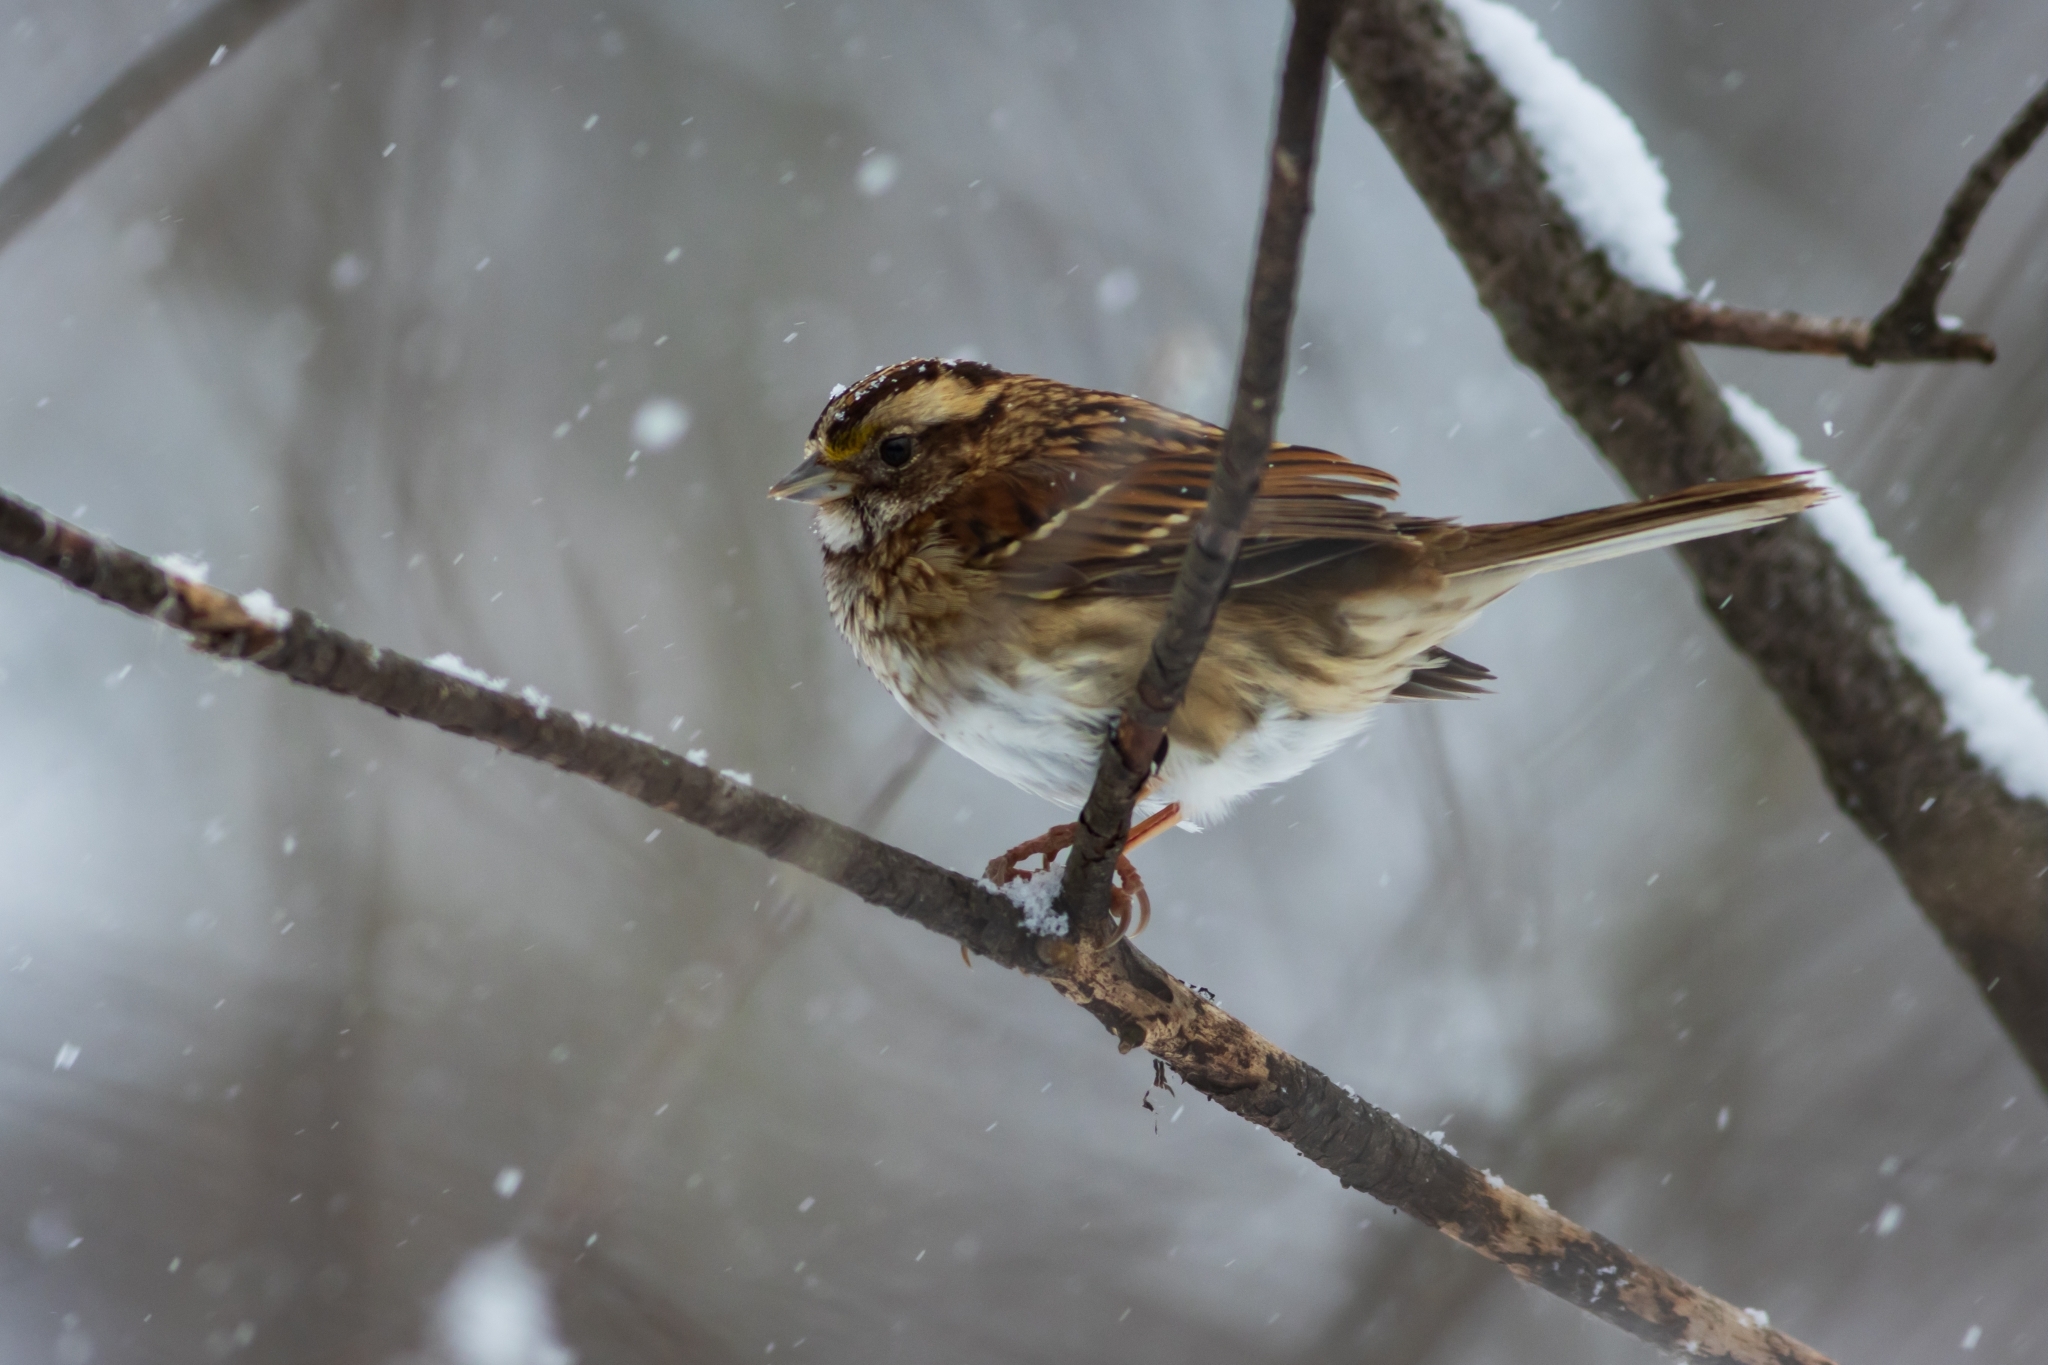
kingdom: Animalia
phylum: Chordata
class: Aves
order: Passeriformes
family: Passerellidae
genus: Zonotrichia
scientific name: Zonotrichia albicollis
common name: White-throated sparrow
